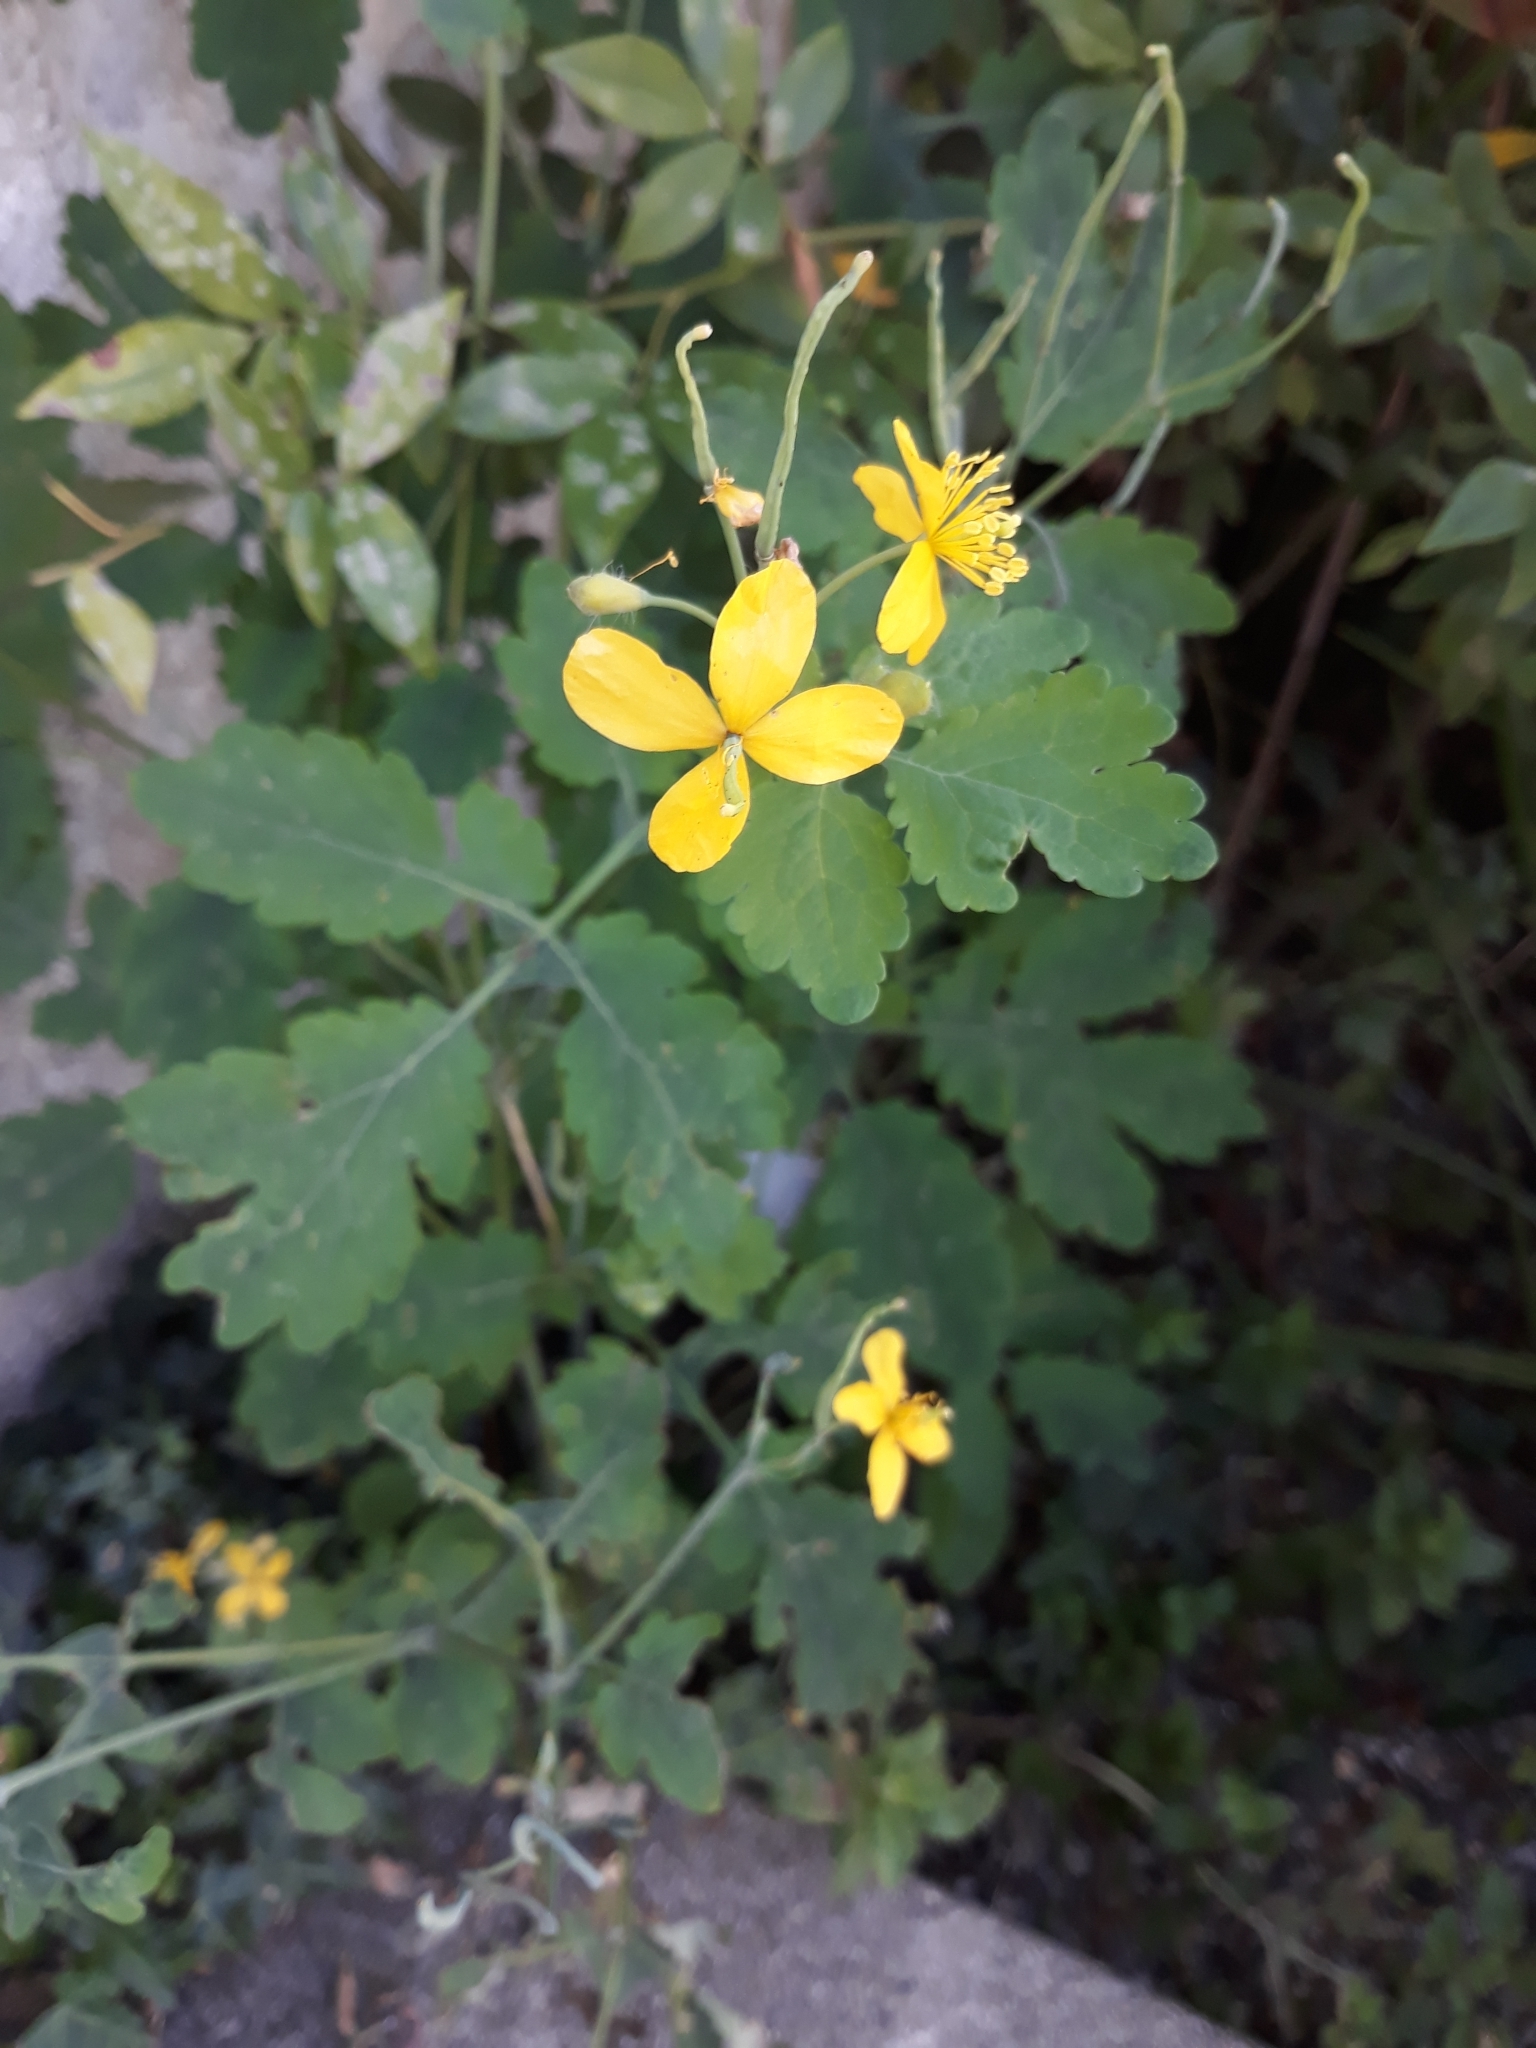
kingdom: Plantae
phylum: Tracheophyta
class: Magnoliopsida
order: Ranunculales
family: Papaveraceae
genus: Chelidonium
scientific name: Chelidonium majus
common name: Greater celandine
